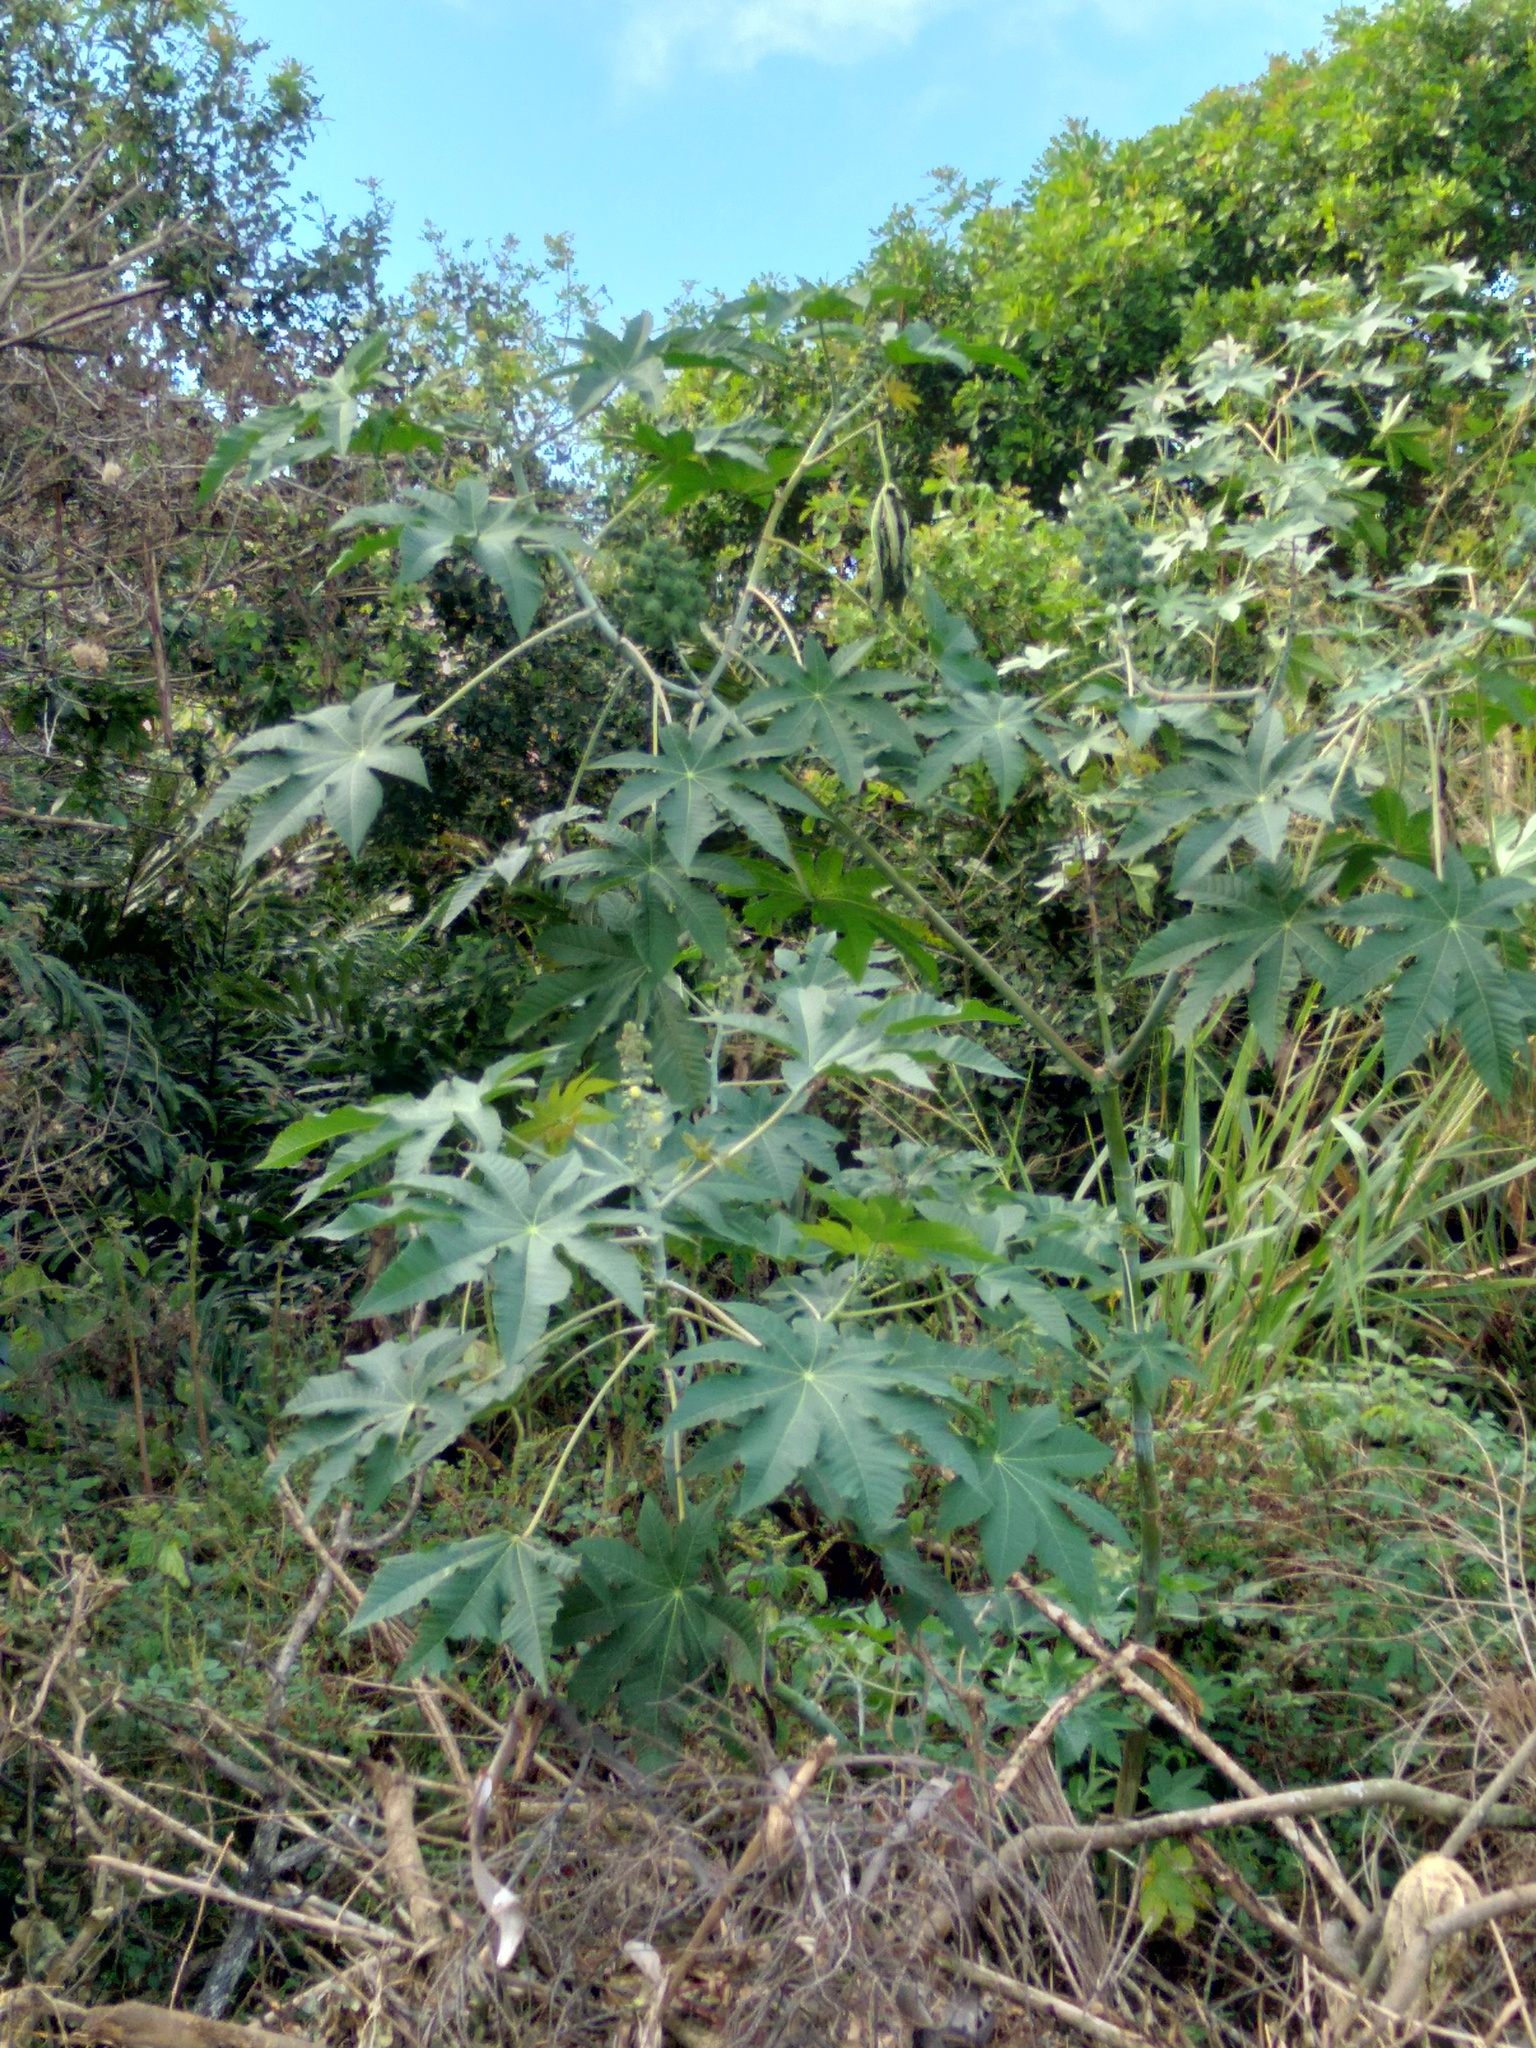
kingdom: Plantae
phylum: Tracheophyta
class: Magnoliopsida
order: Malpighiales
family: Euphorbiaceae
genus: Ricinus
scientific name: Ricinus communis
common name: Castor-oil-plant
